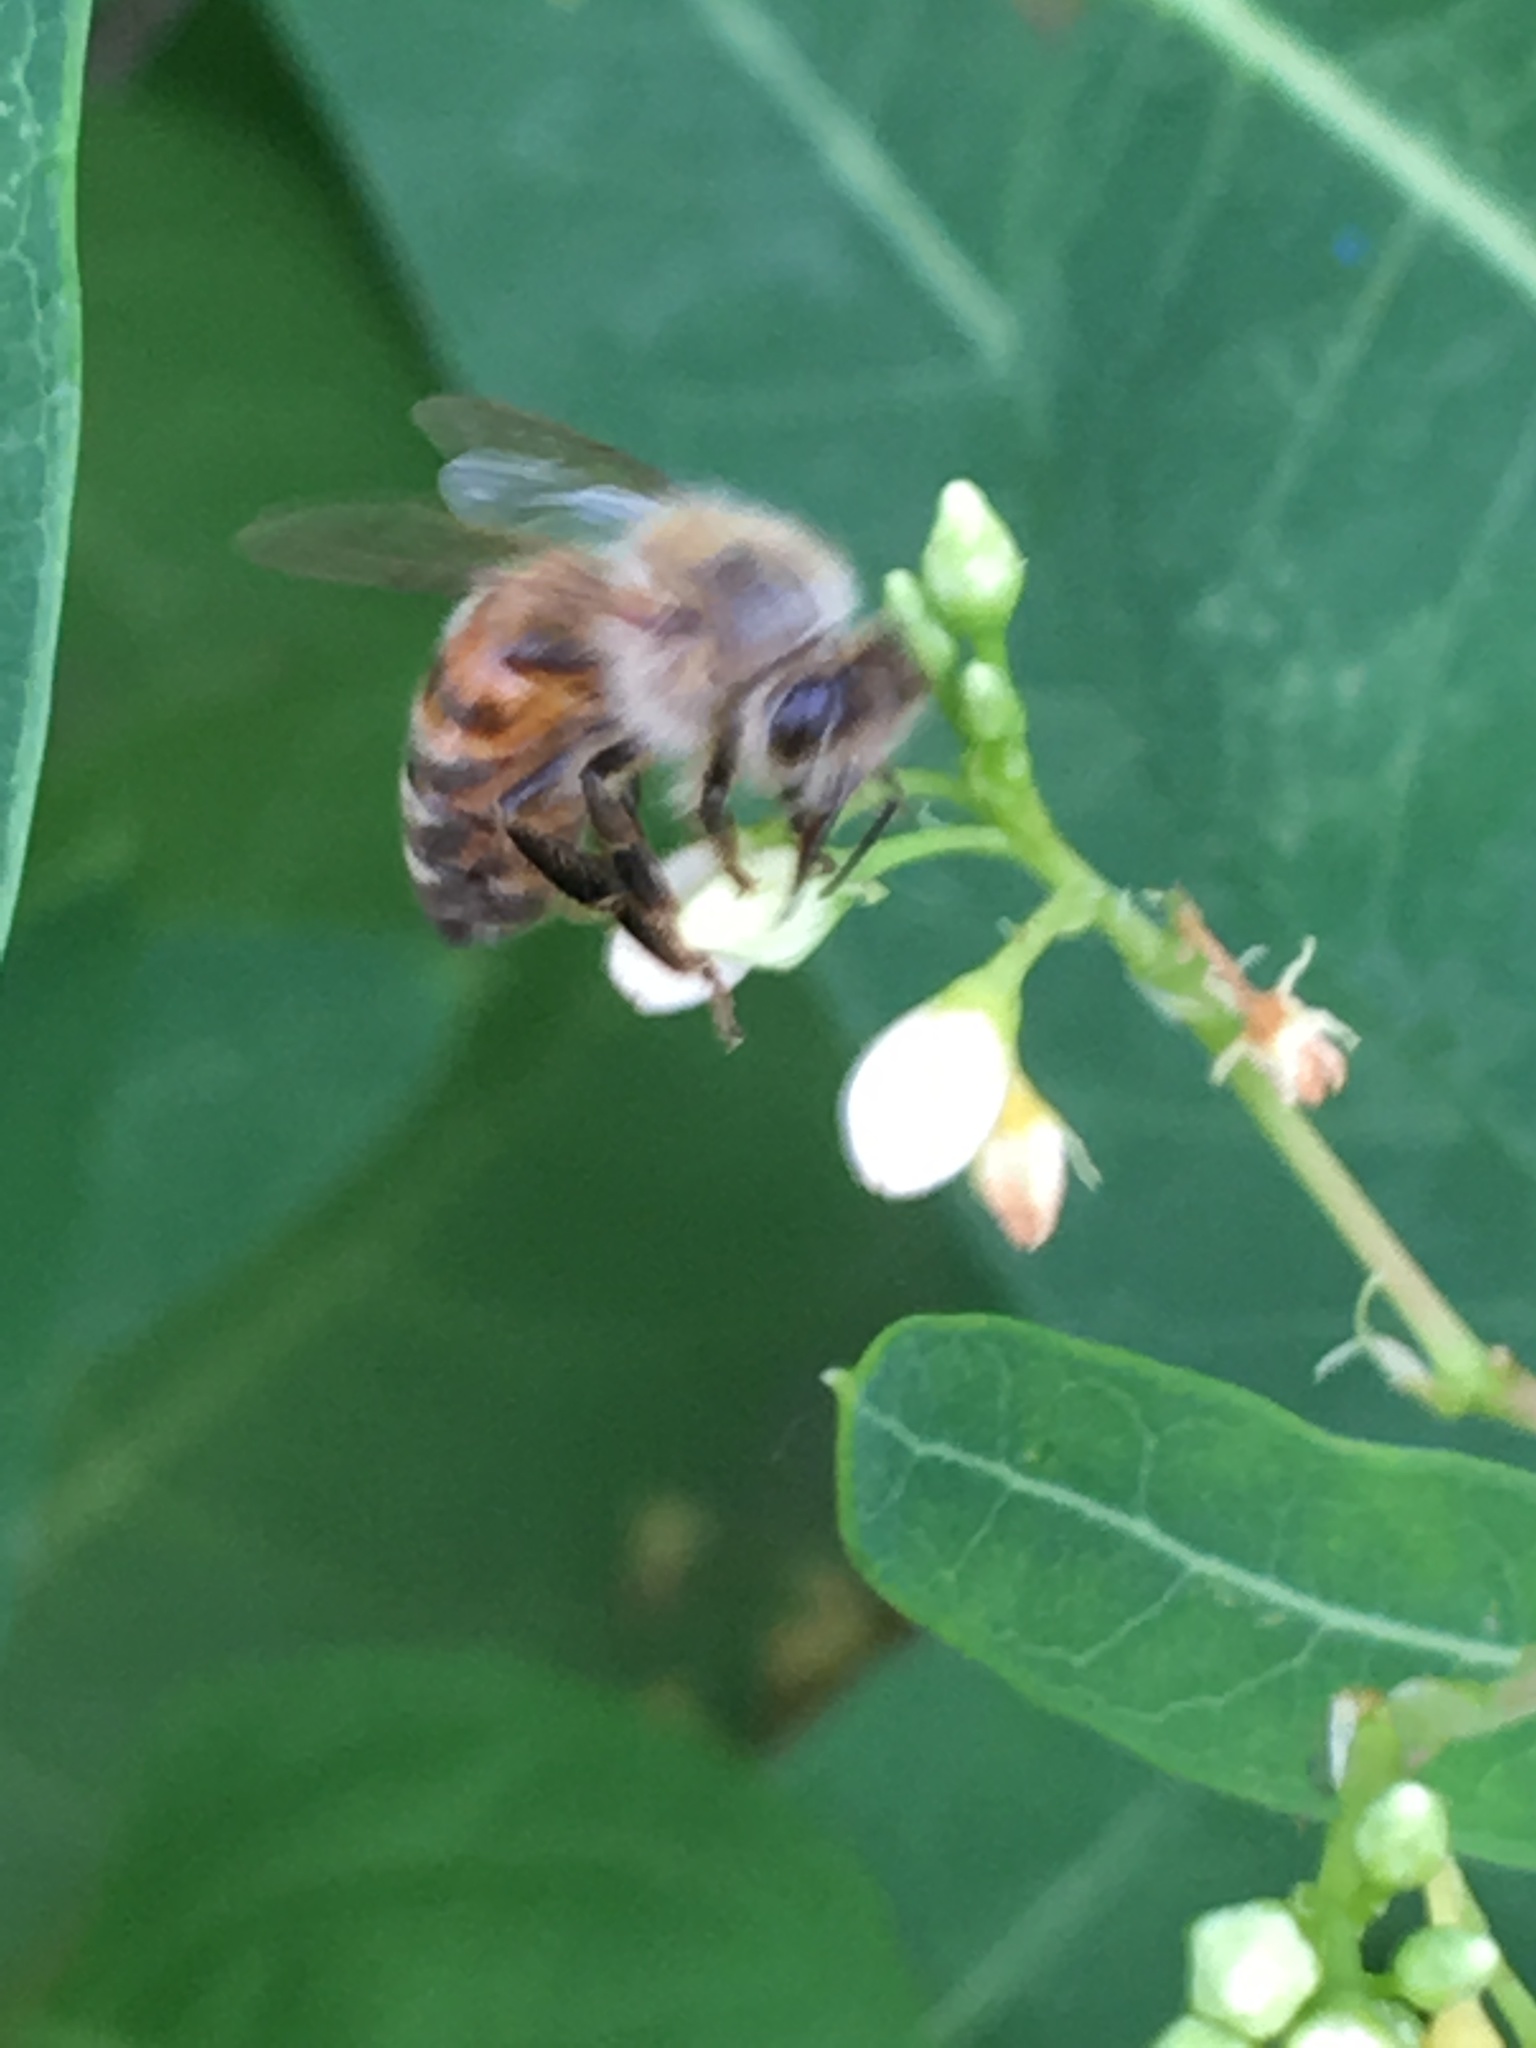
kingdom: Animalia
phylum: Arthropoda
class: Insecta
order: Hymenoptera
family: Apidae
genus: Apis
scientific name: Apis mellifera
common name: Honey bee
